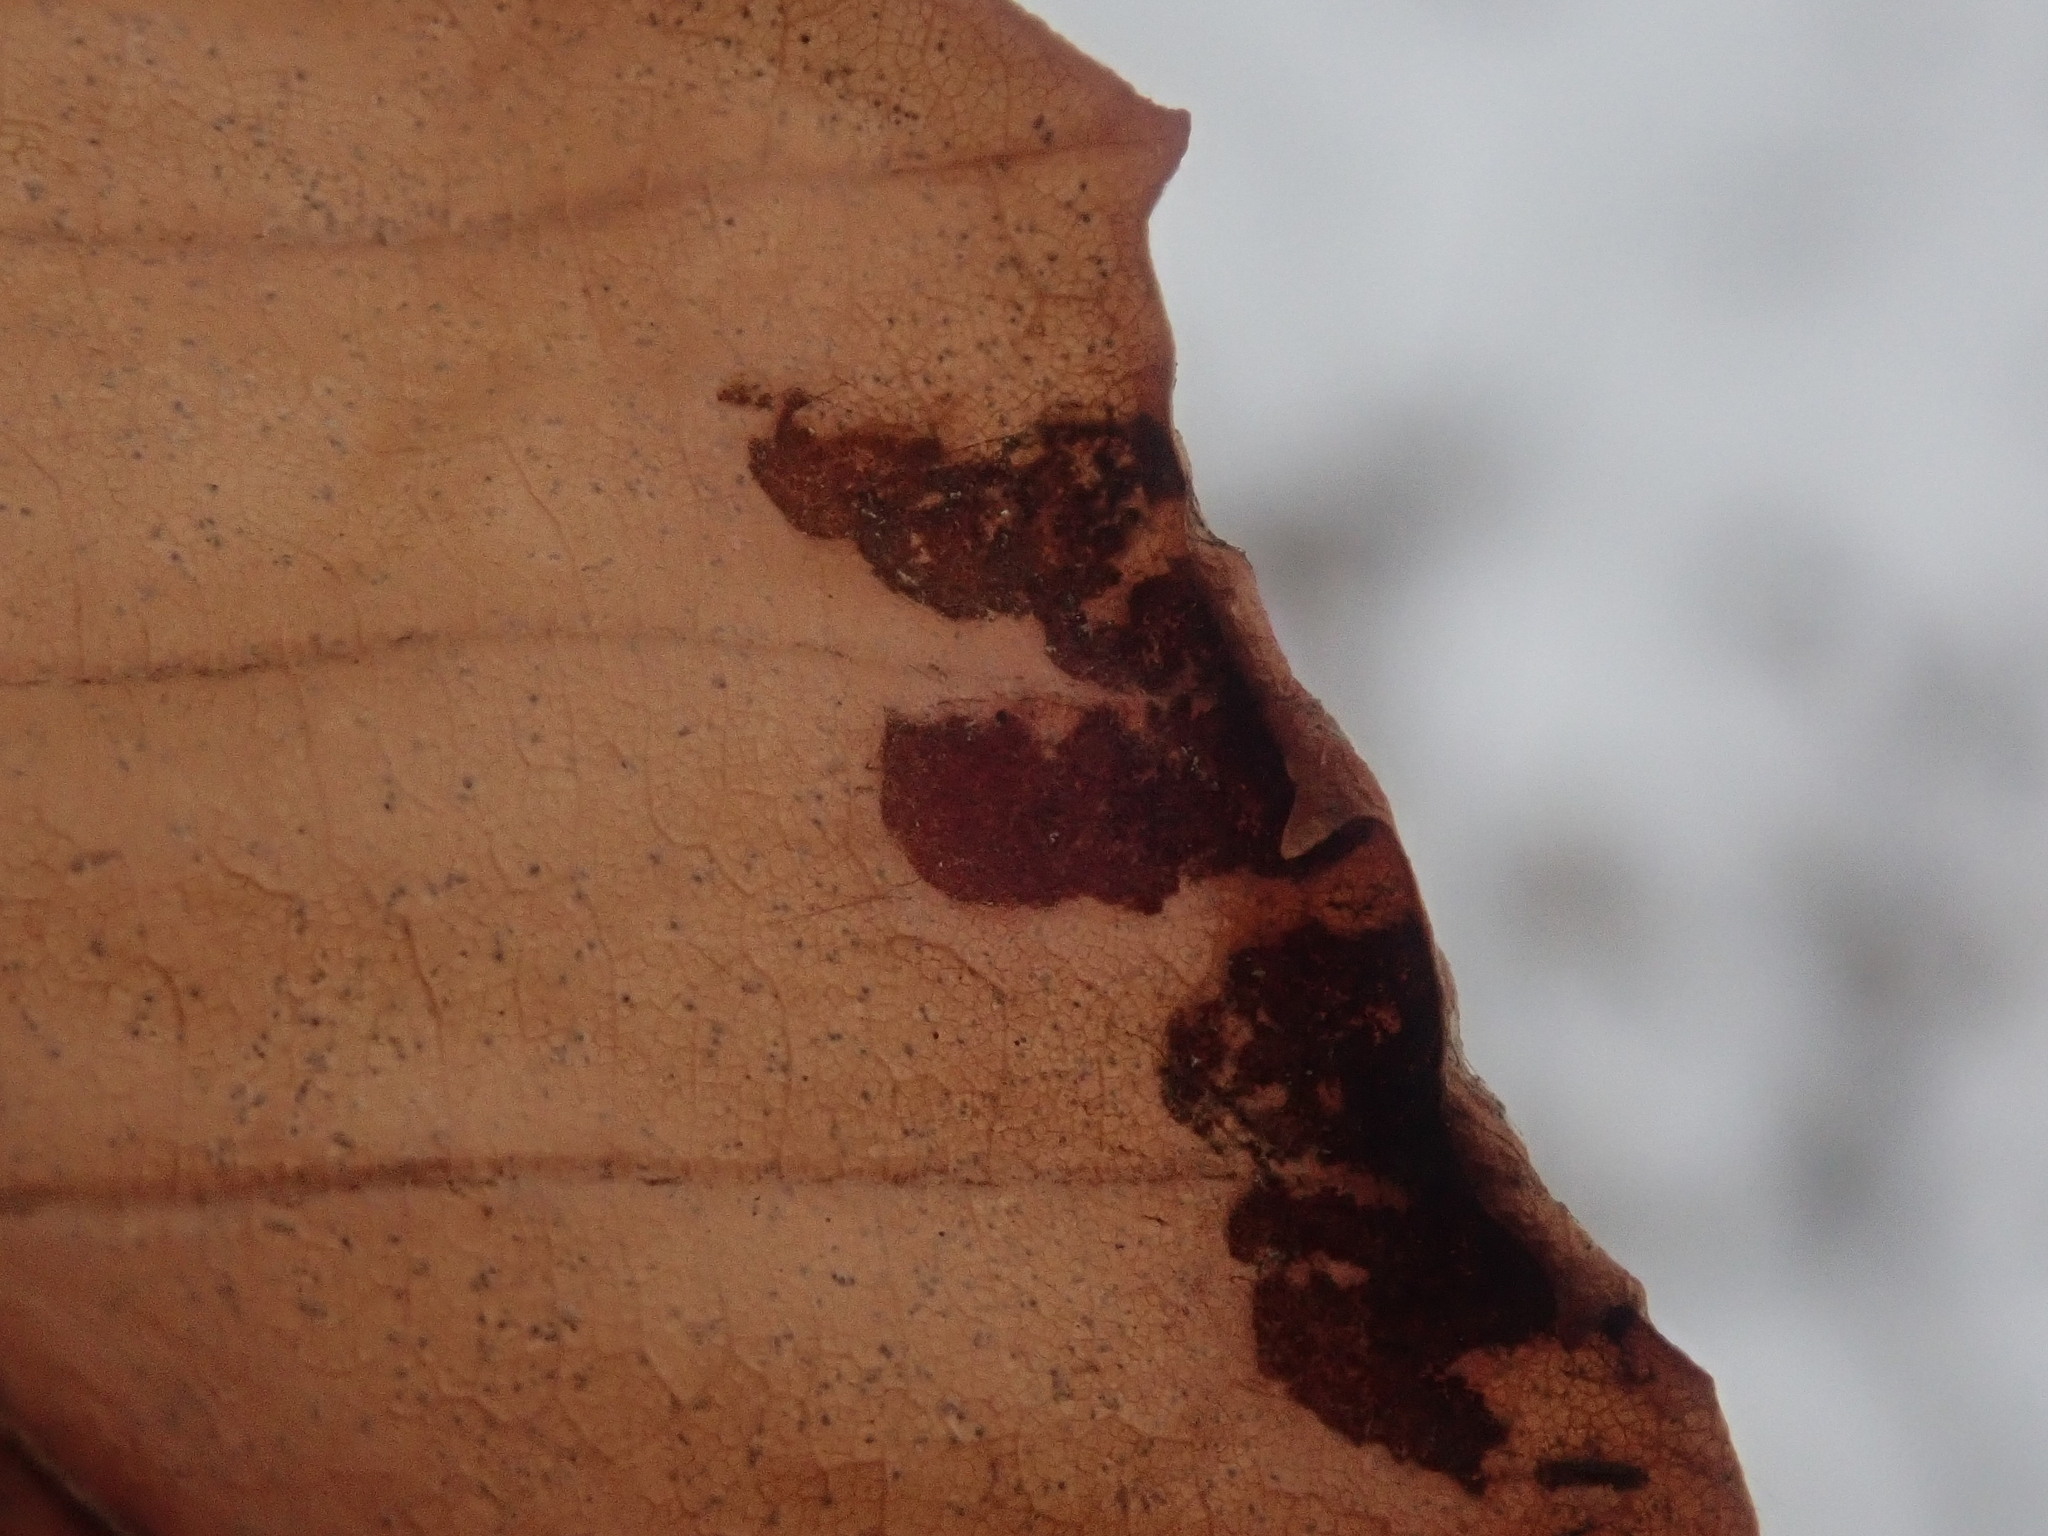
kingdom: Animalia
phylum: Arthropoda
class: Arachnida
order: Trombidiformes
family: Eriophyidae
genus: Acalitus
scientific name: Acalitus
